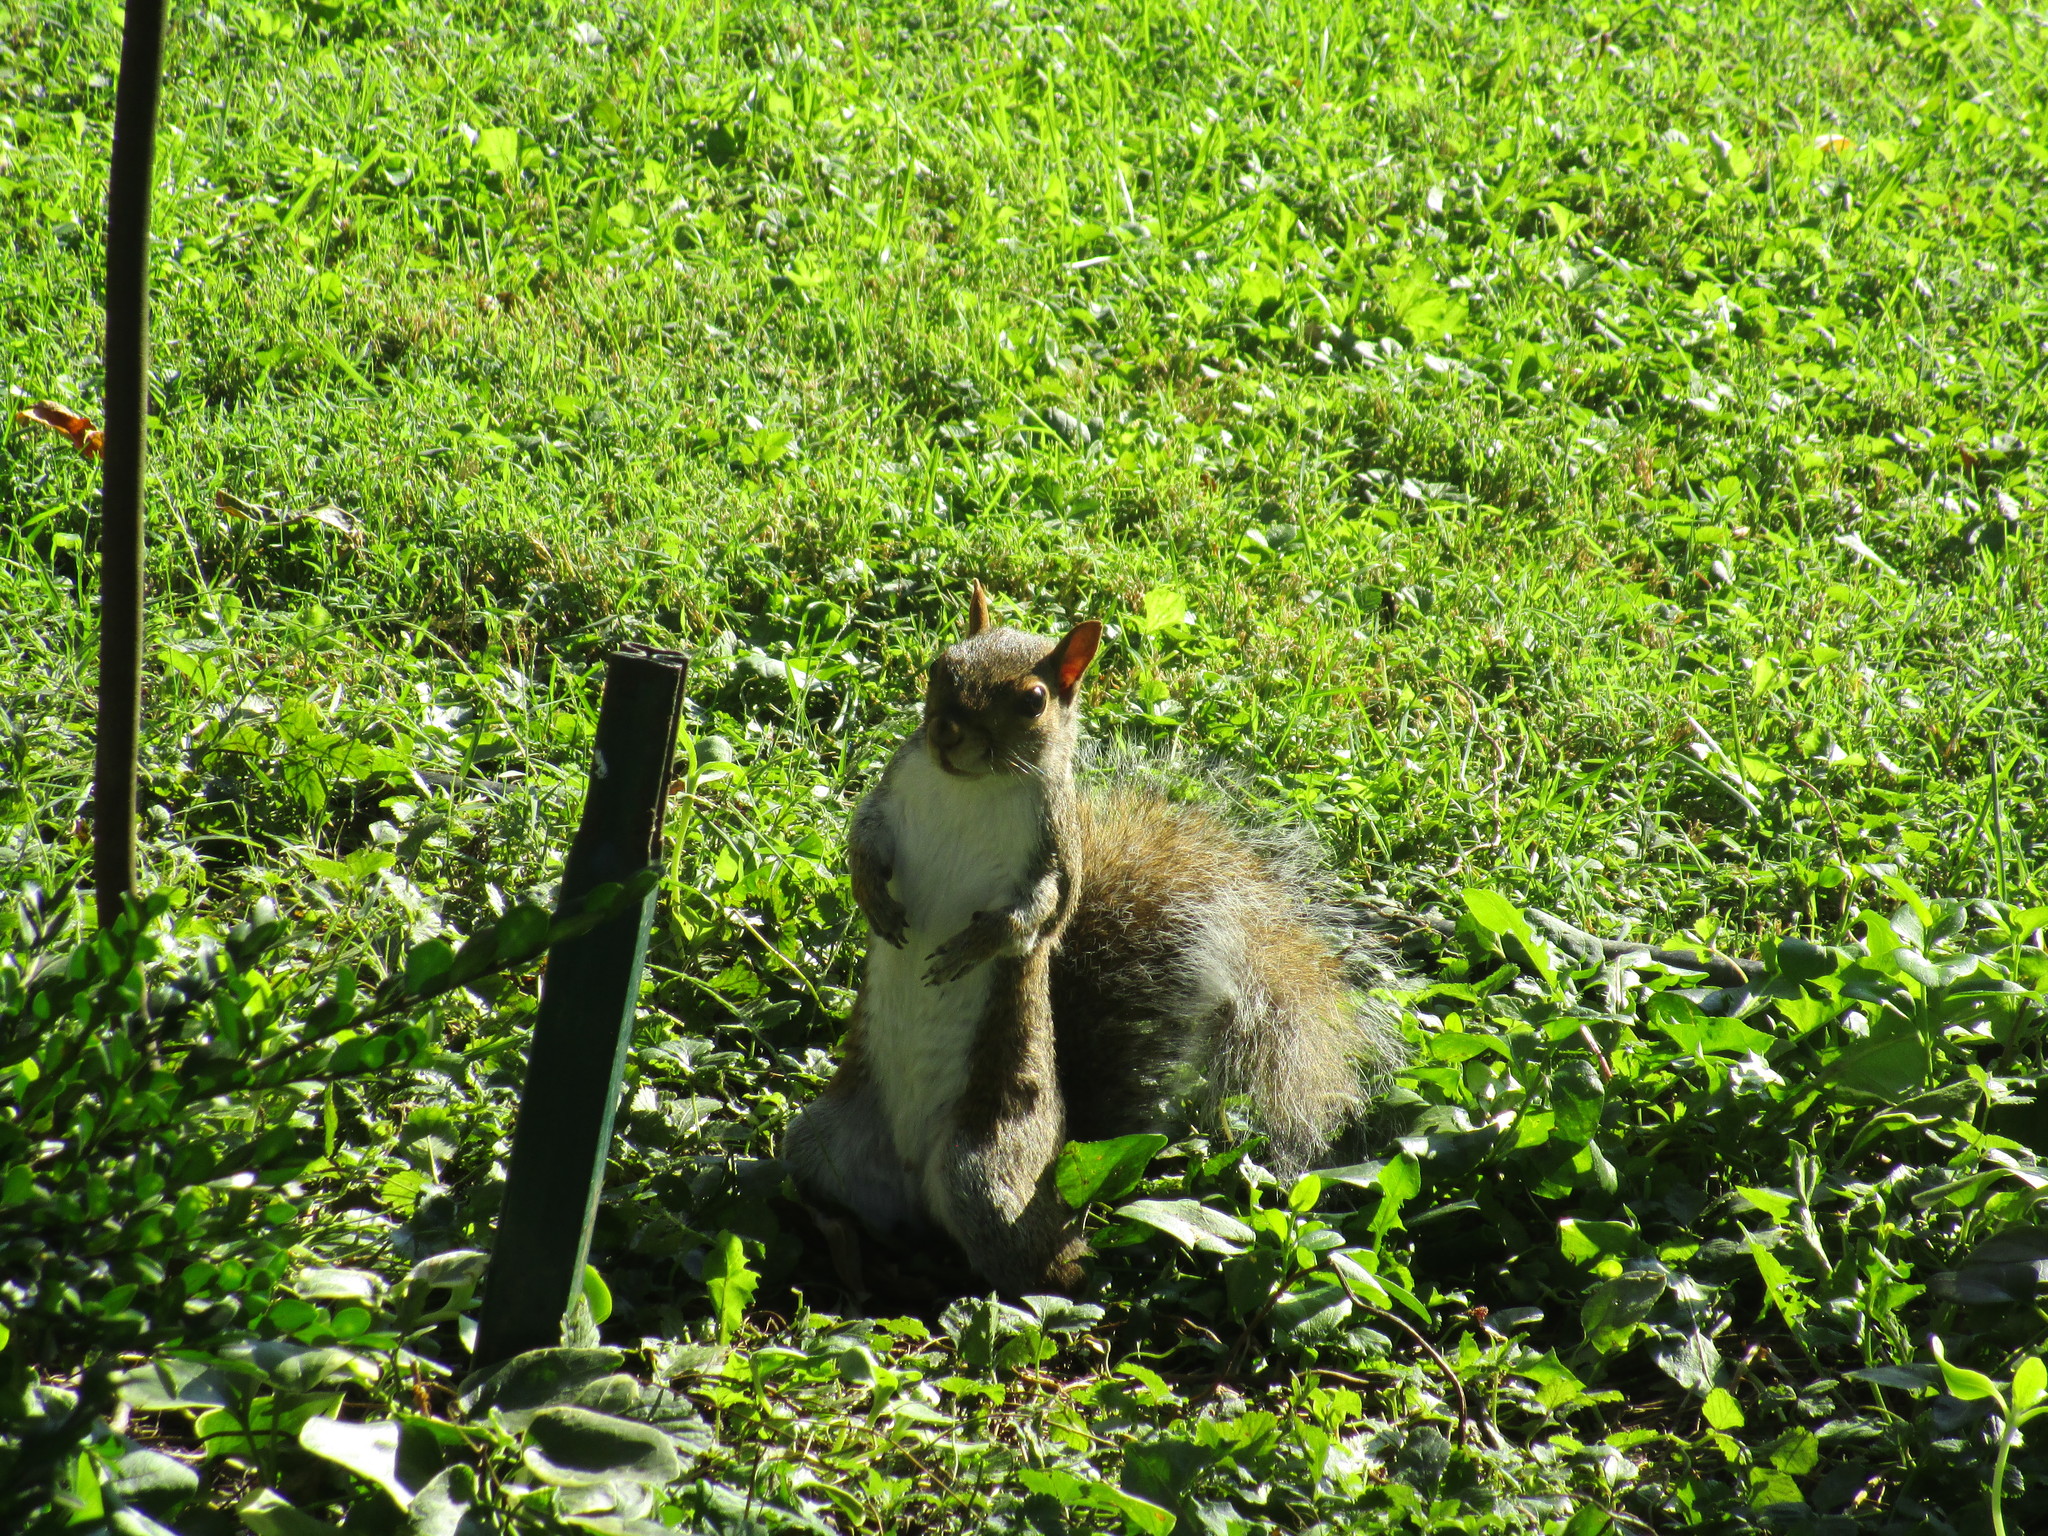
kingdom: Animalia
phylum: Chordata
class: Mammalia
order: Rodentia
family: Sciuridae
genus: Sciurus
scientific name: Sciurus carolinensis
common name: Eastern gray squirrel
